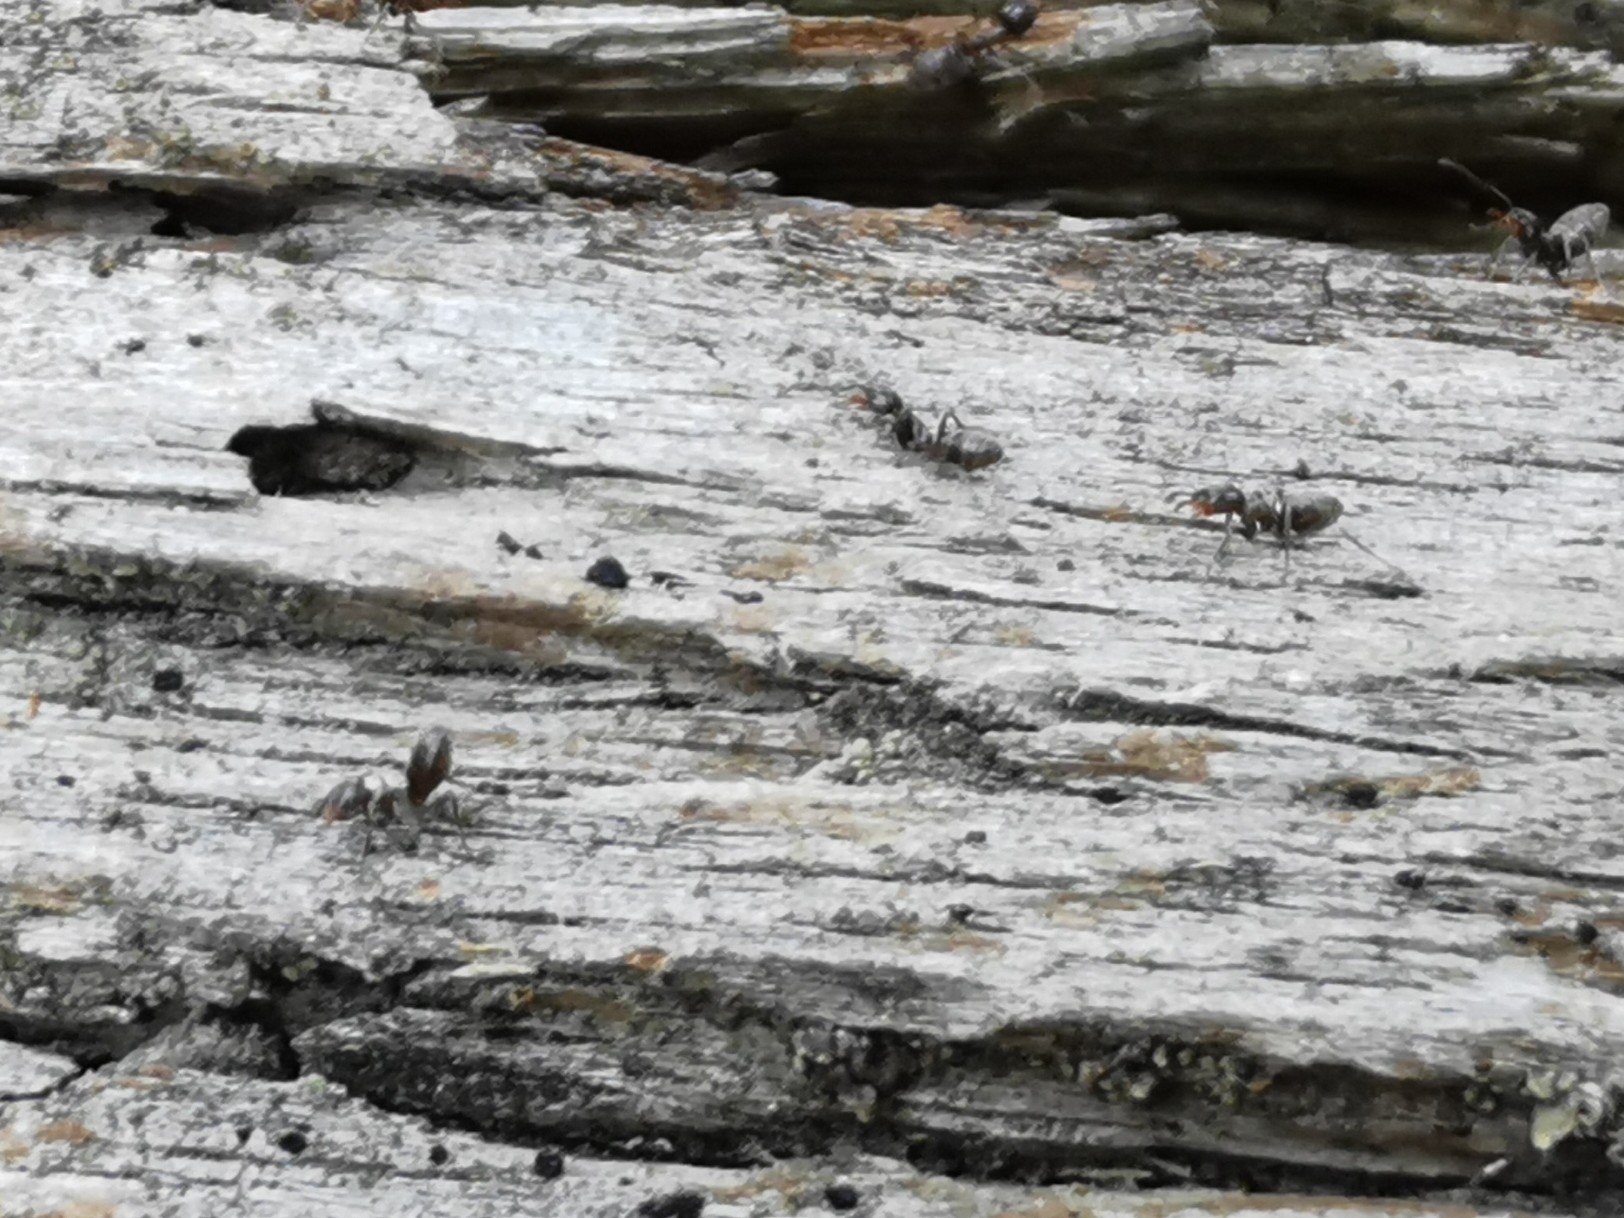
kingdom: Animalia
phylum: Arthropoda
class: Insecta
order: Hymenoptera
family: Formicidae
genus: Liometopum
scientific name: Liometopum luctuosum
